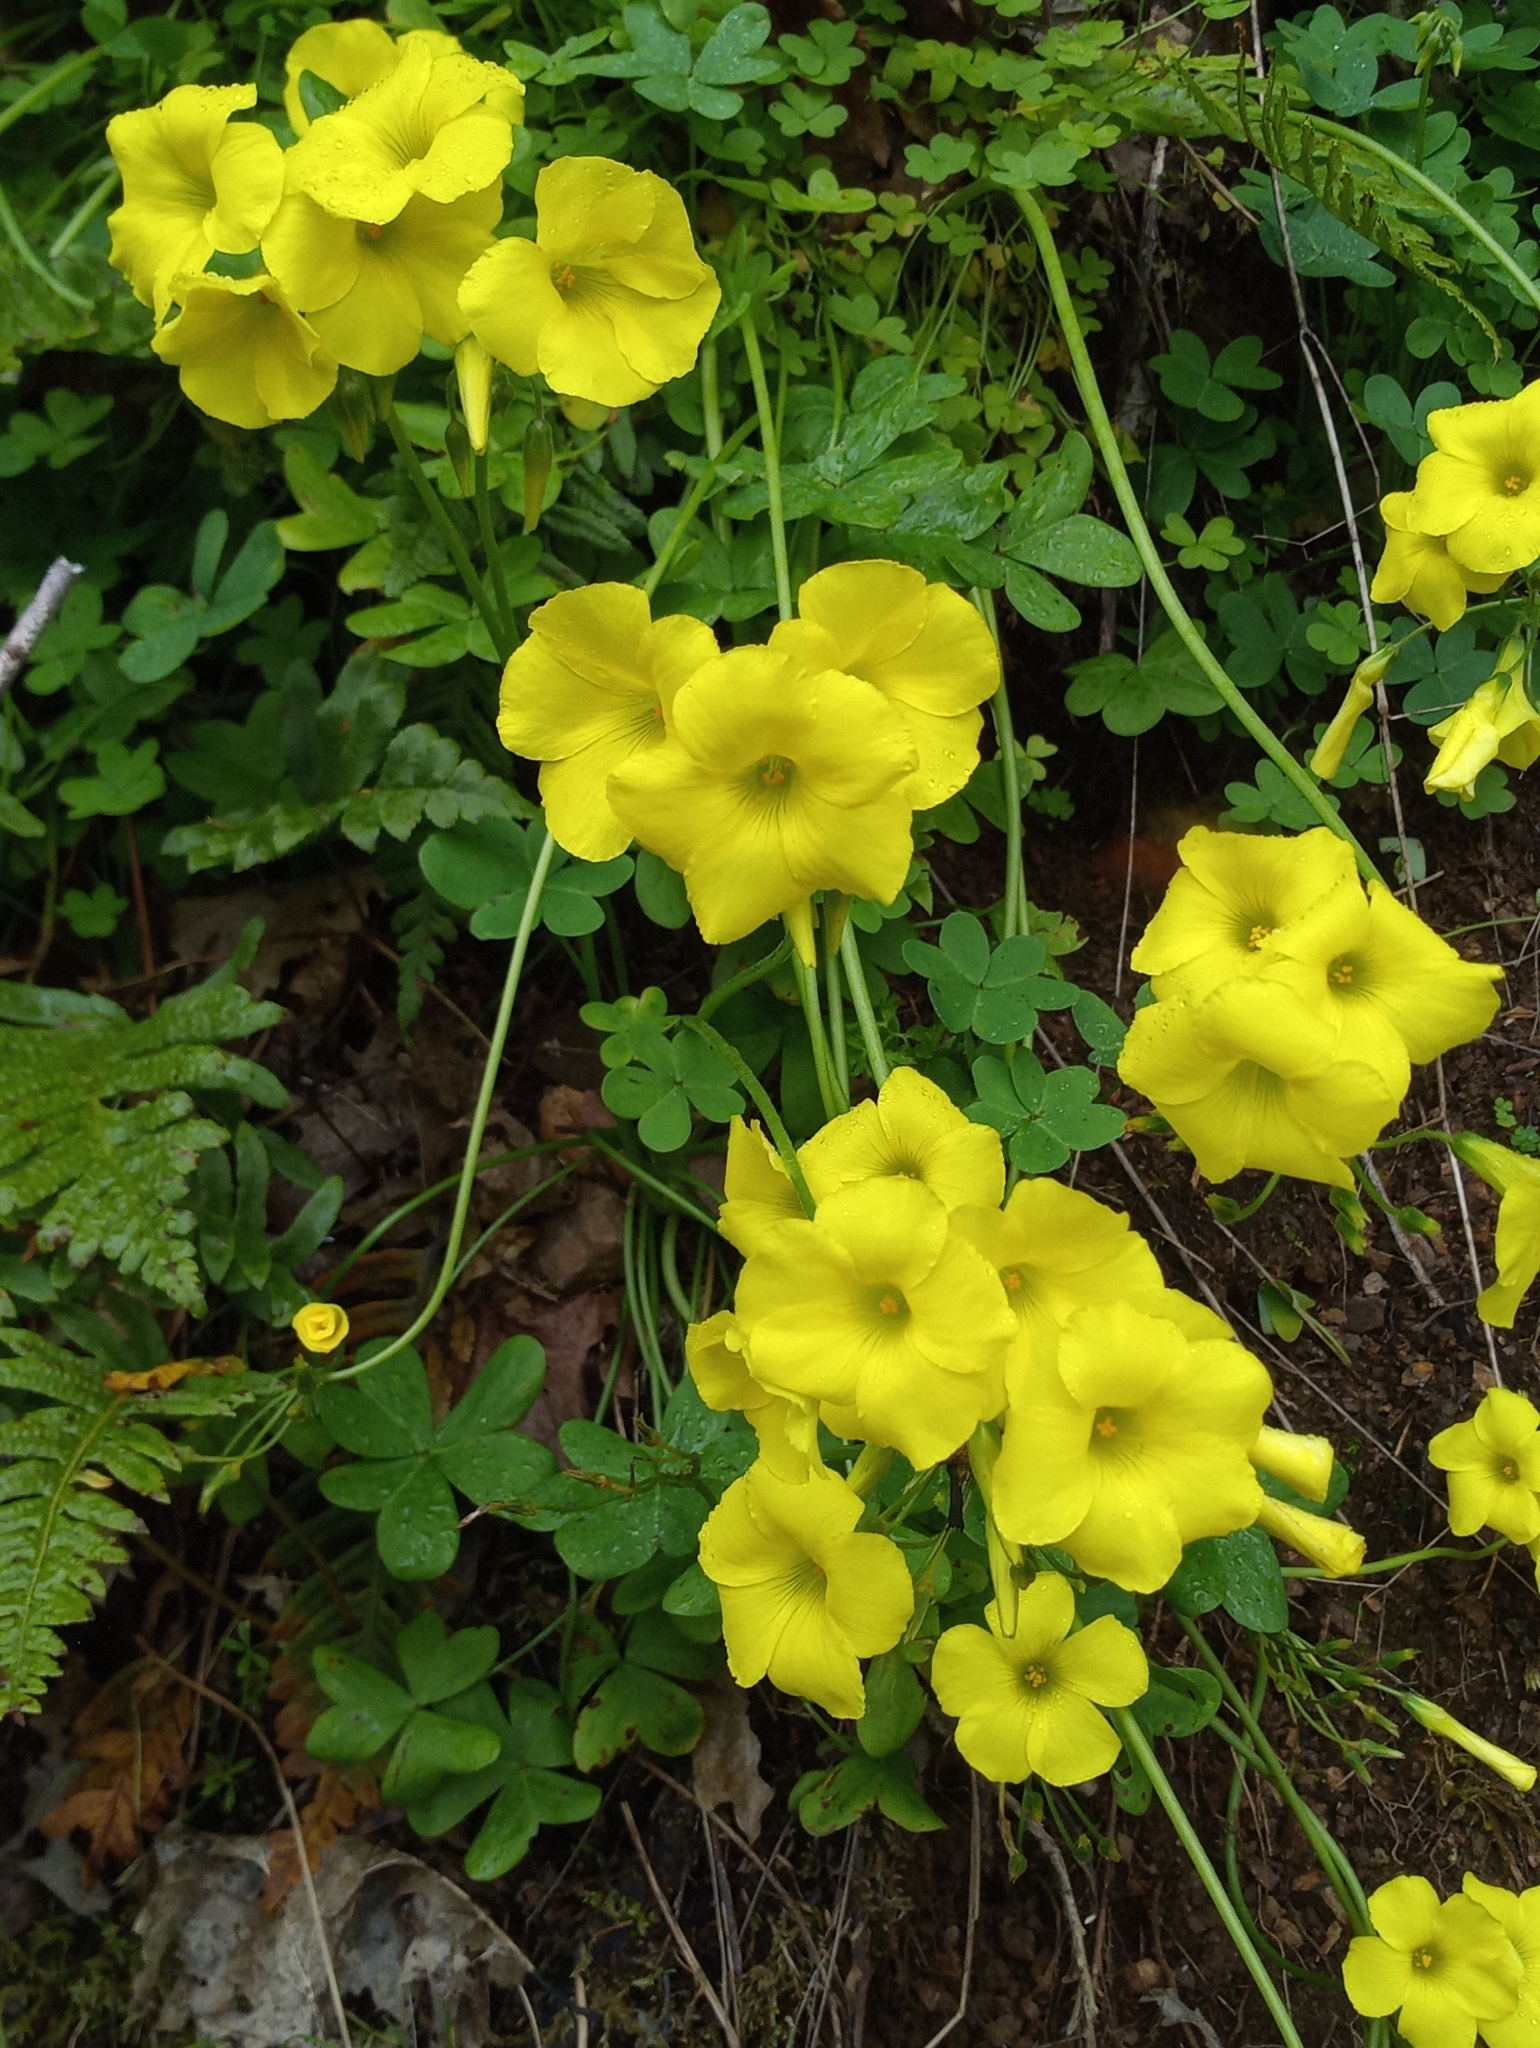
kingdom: Plantae
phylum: Tracheophyta
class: Magnoliopsida
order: Oxalidales
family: Oxalidaceae
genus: Oxalis
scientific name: Oxalis pes-caprae
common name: Bermuda-buttercup
